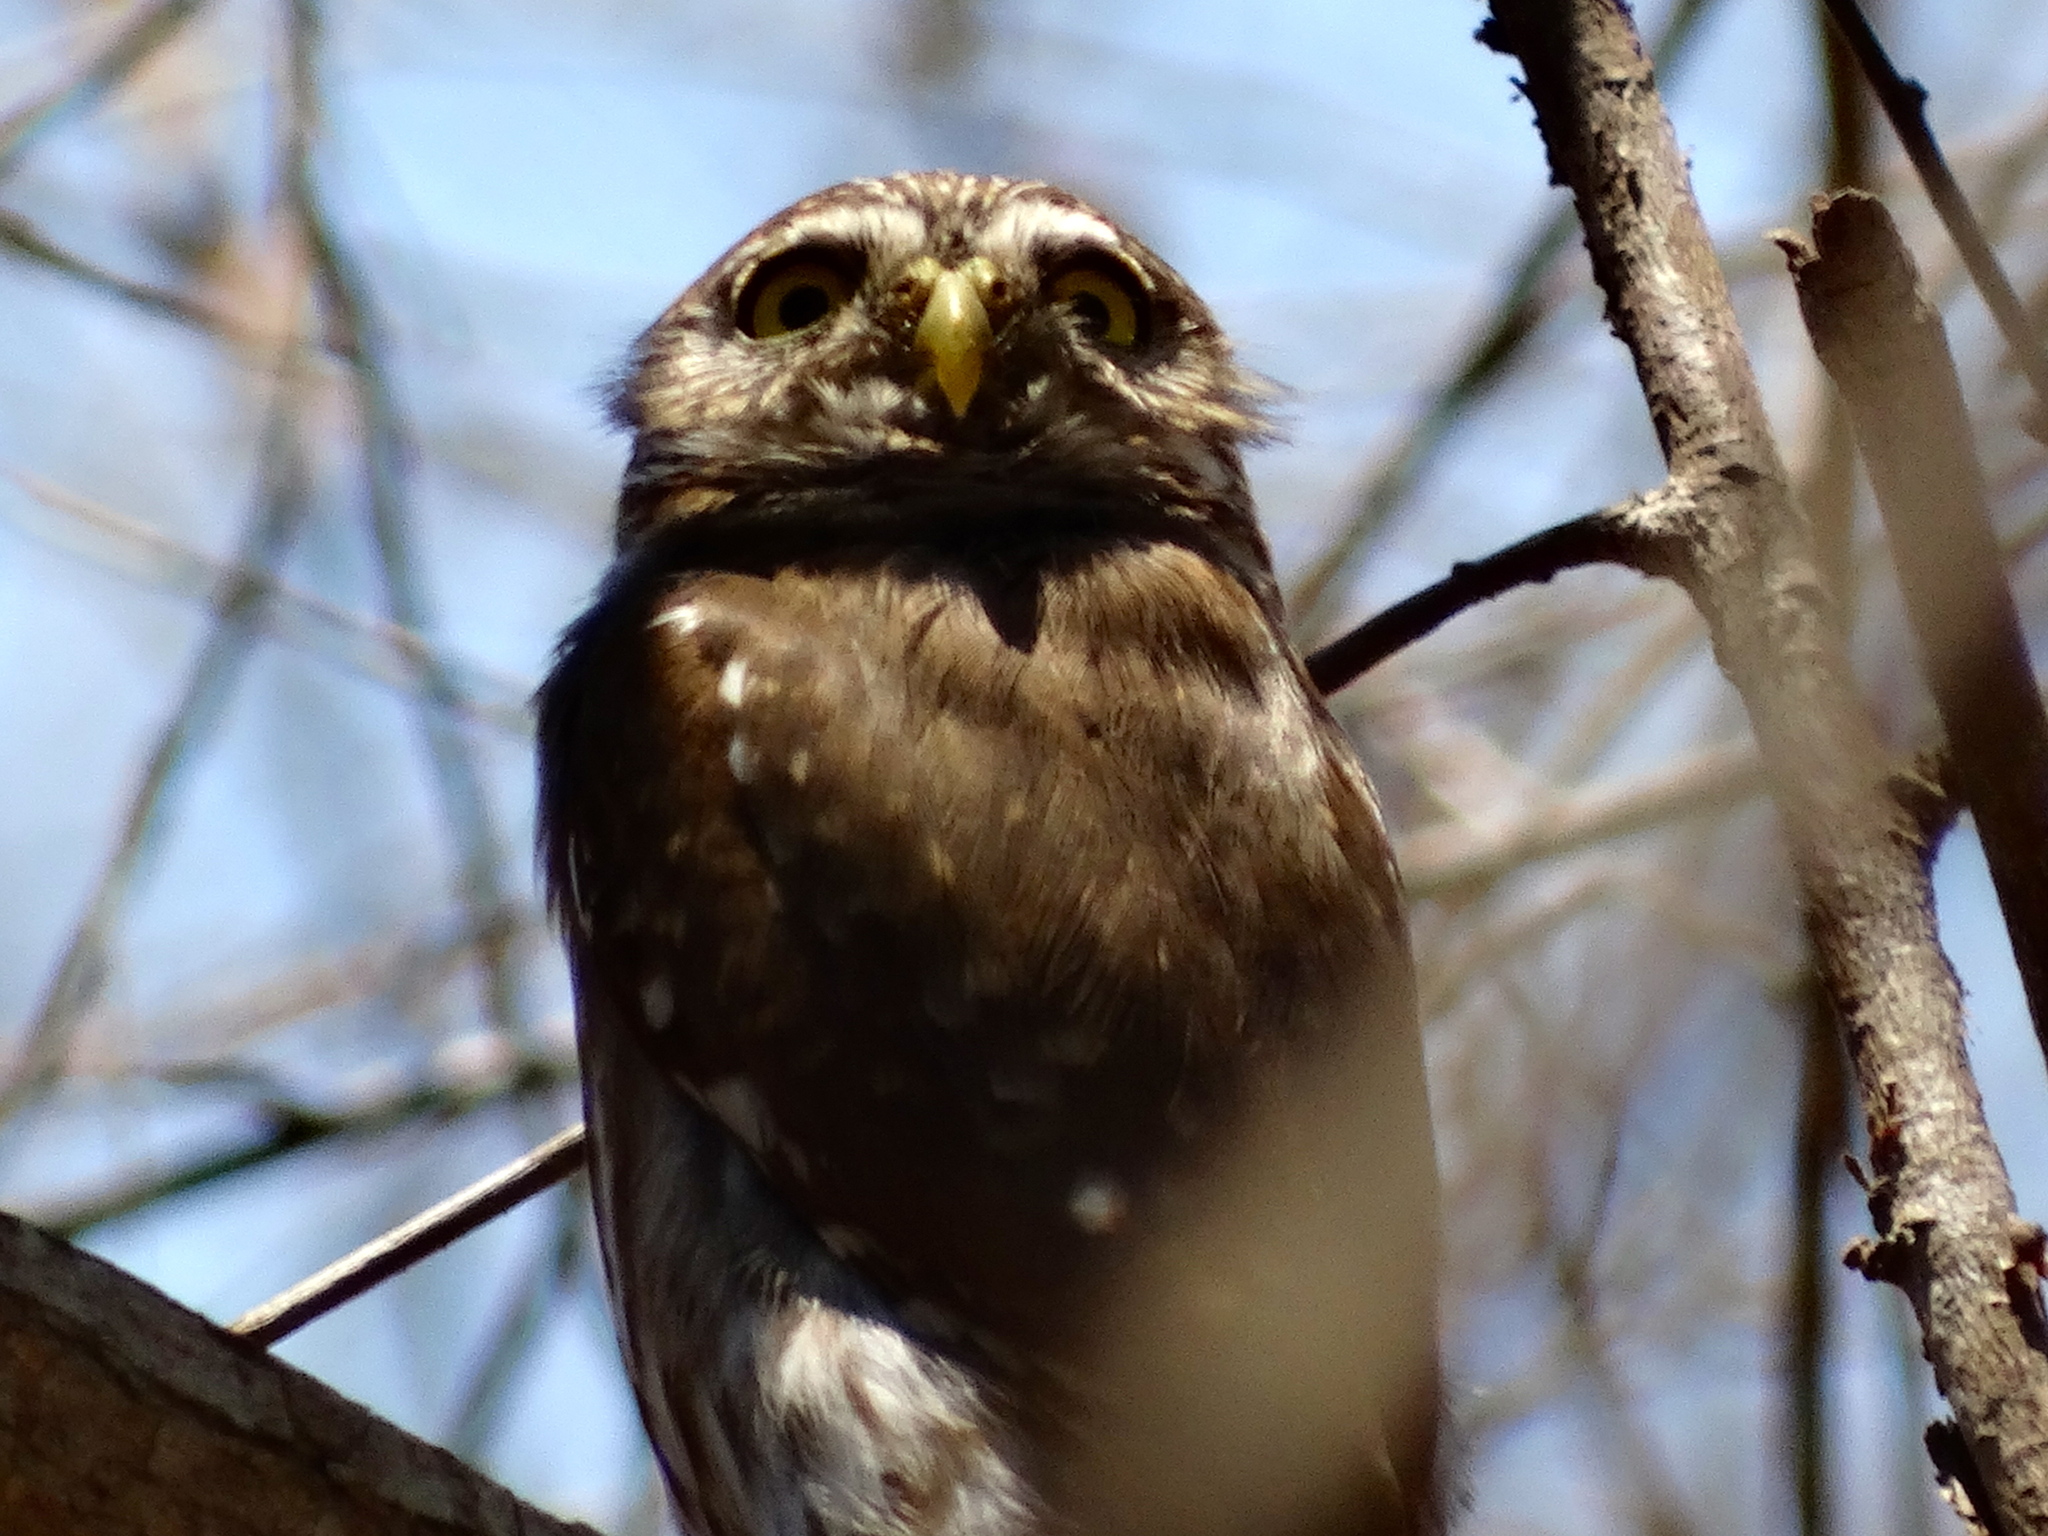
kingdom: Animalia
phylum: Chordata
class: Aves
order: Strigiformes
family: Strigidae
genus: Glaucidium
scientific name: Glaucidium brasilianum
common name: Ferruginous pygmy-owl
